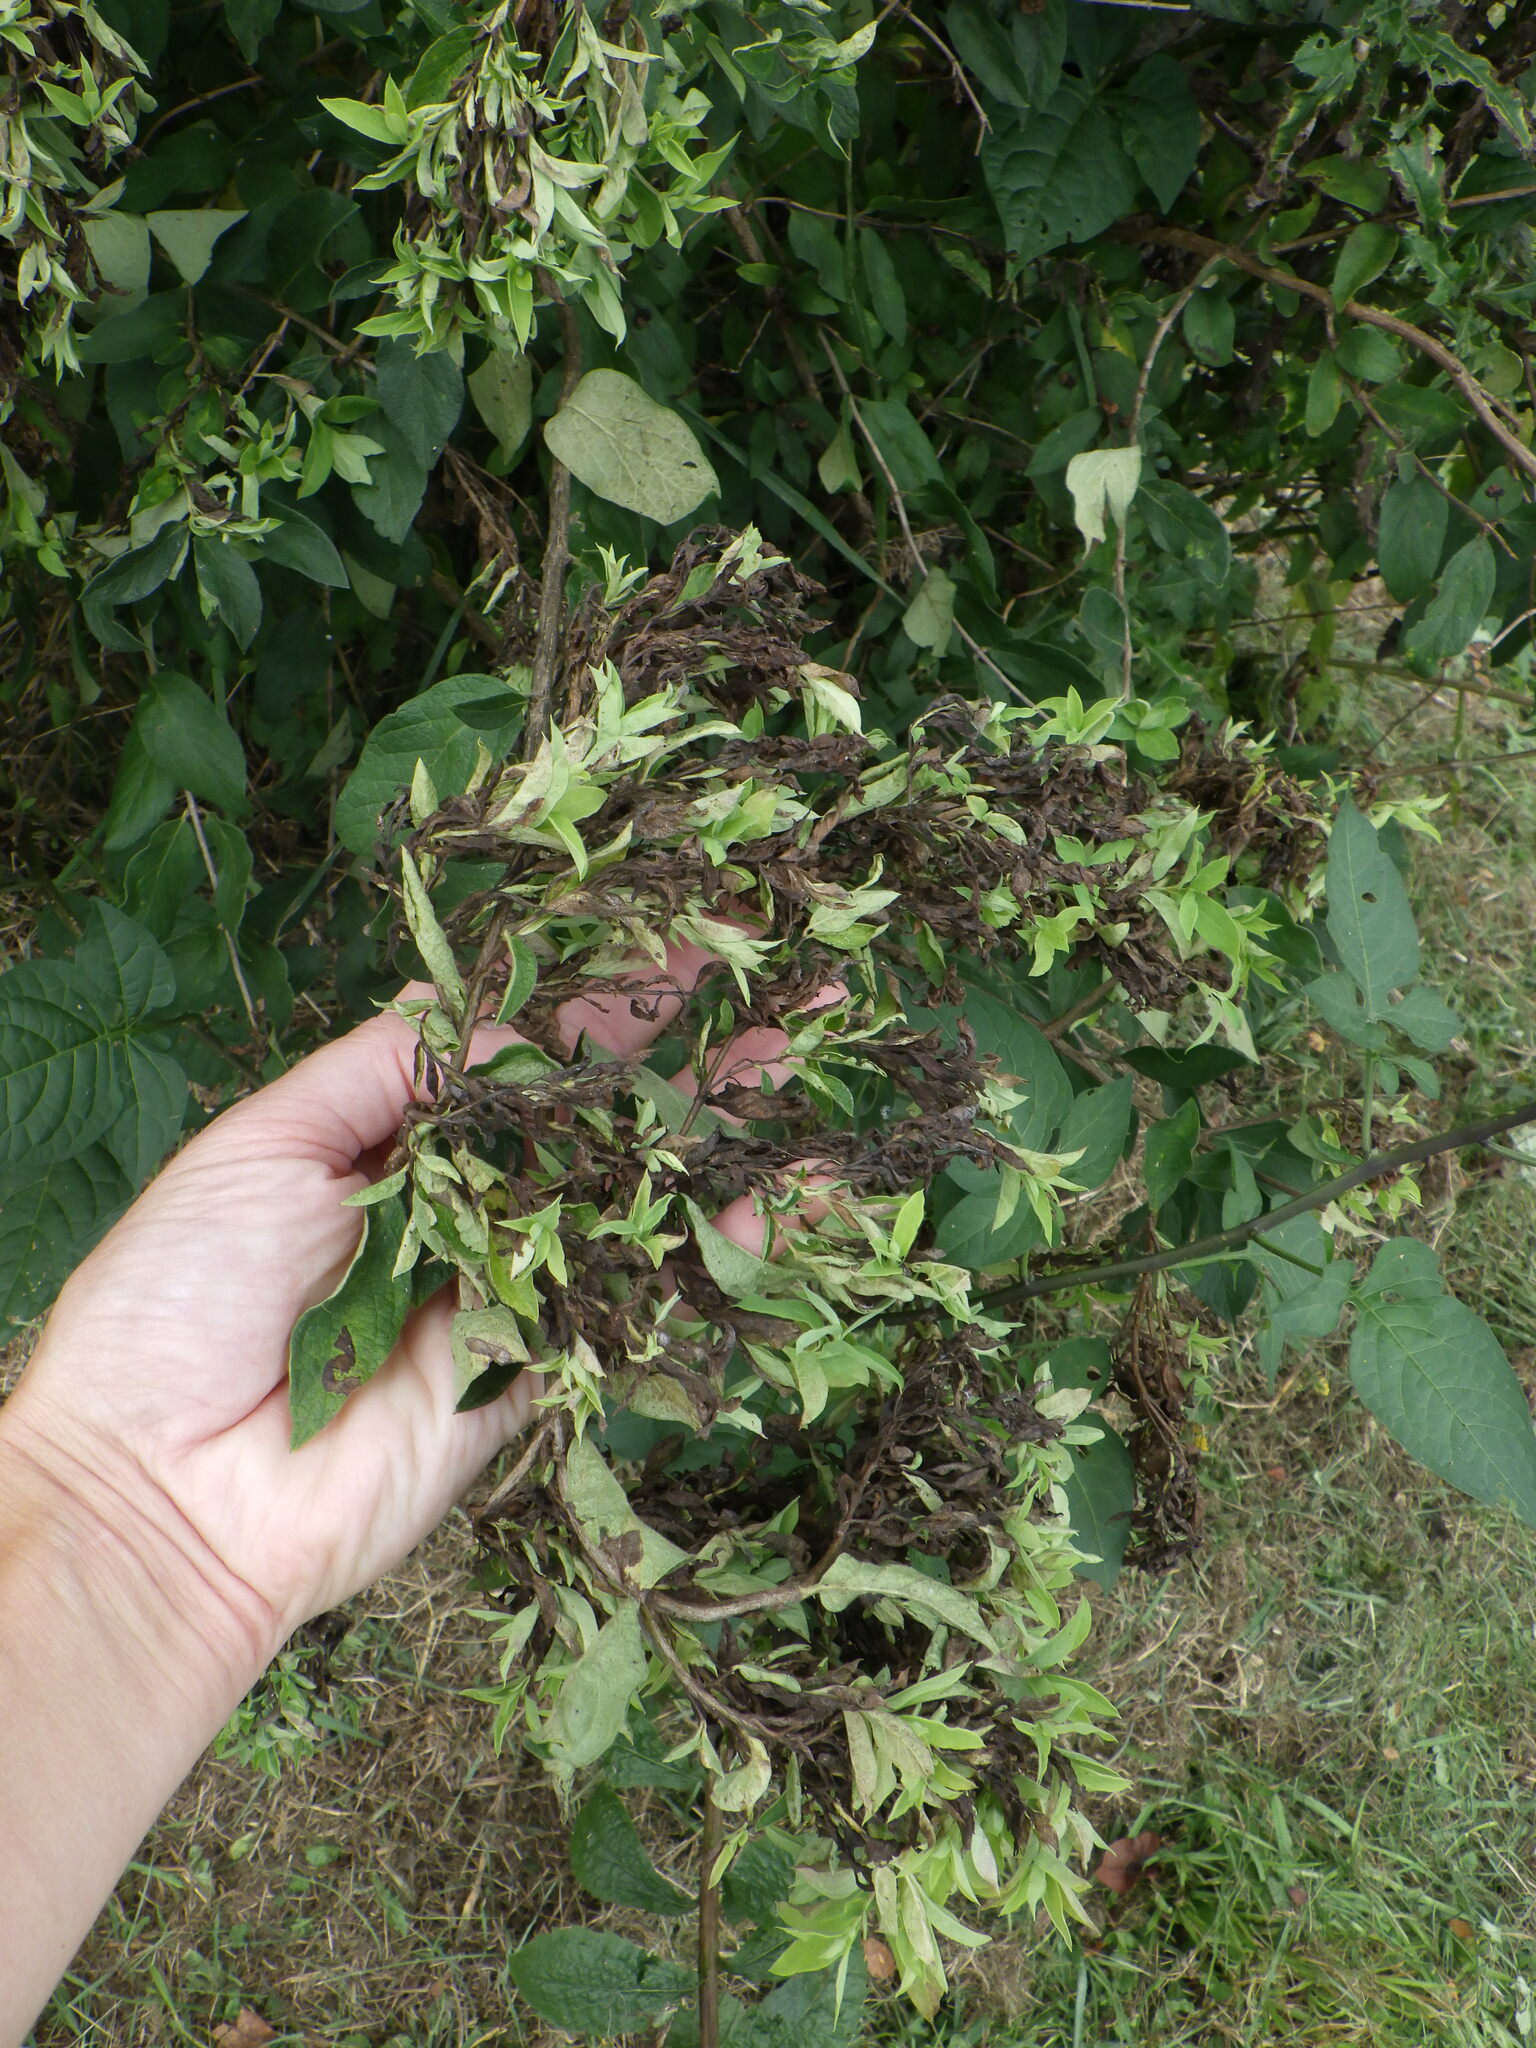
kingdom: Animalia
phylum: Arthropoda
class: Insecta
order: Hemiptera
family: Aphididae
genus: Hyadaphis
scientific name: Hyadaphis tataricae
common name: Honeysuckle witches' broom aphid
